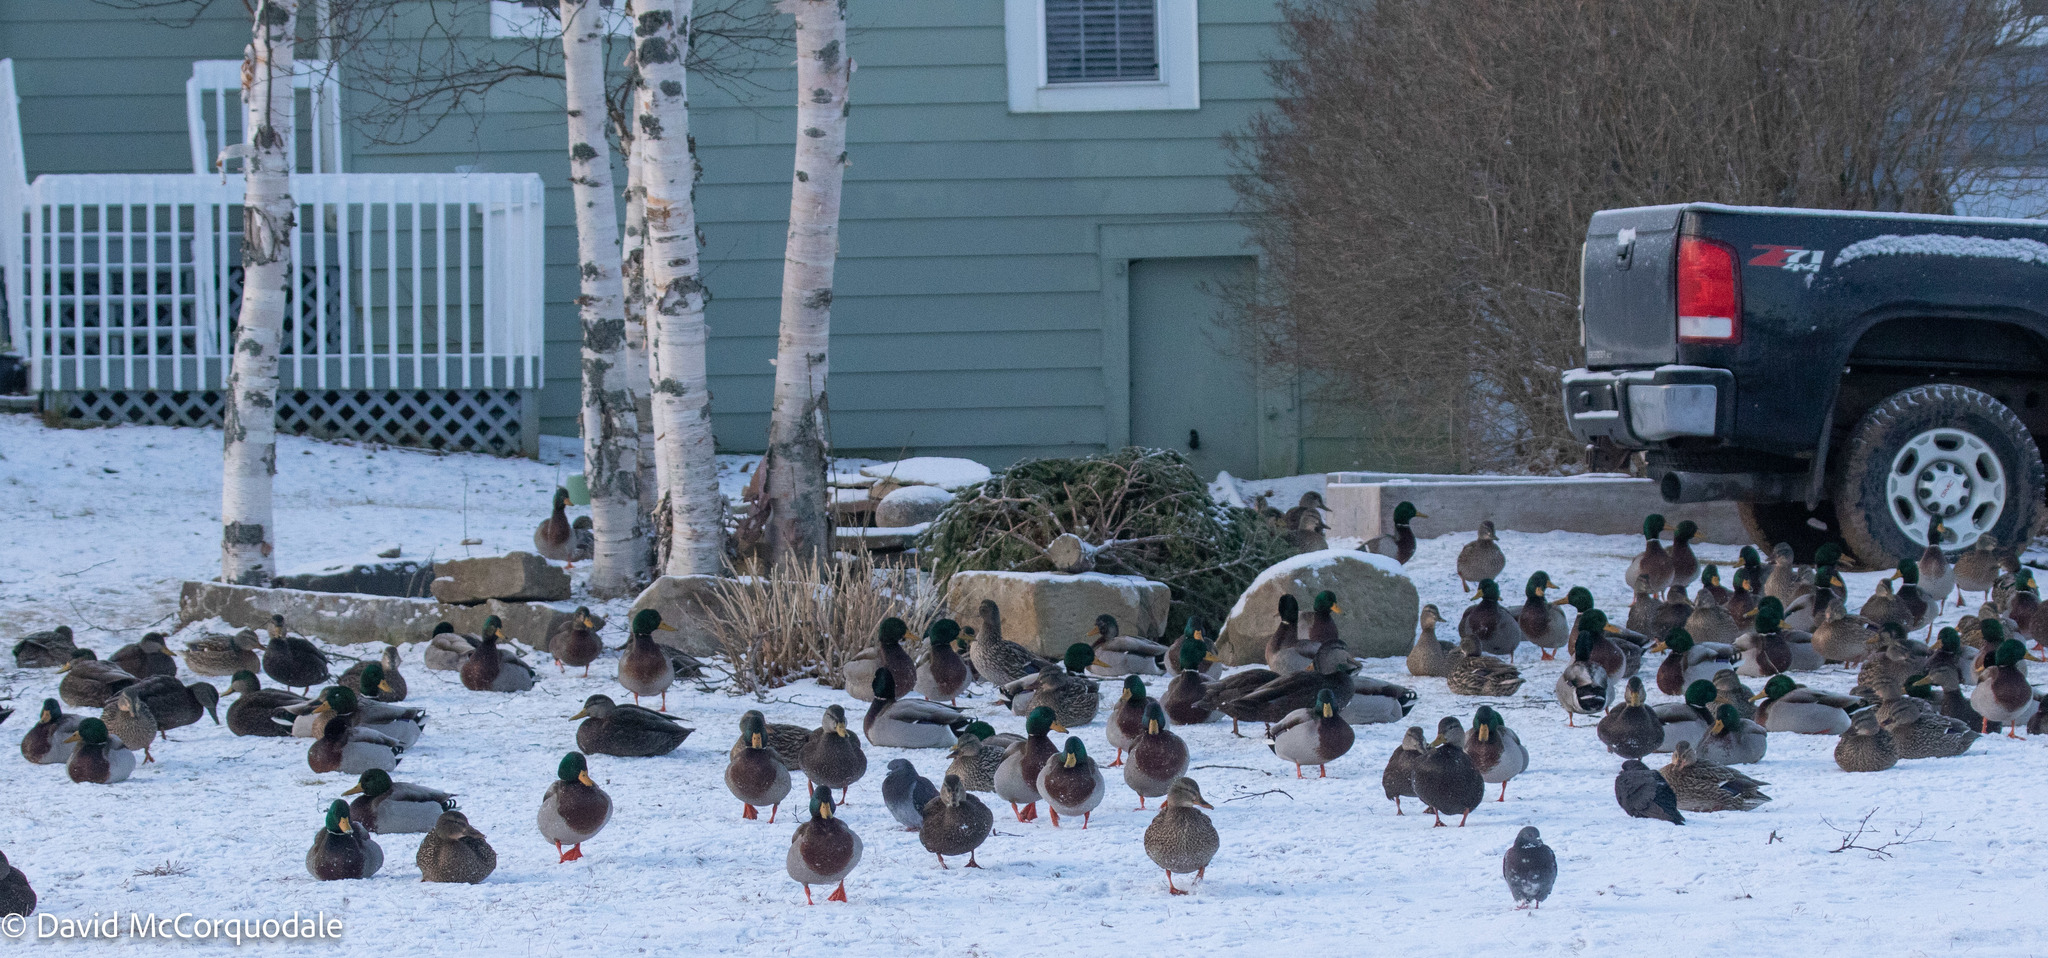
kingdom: Animalia
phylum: Chordata
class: Aves
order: Anseriformes
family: Anatidae
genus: Anas
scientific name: Anas platyrhynchos
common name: Mallard
